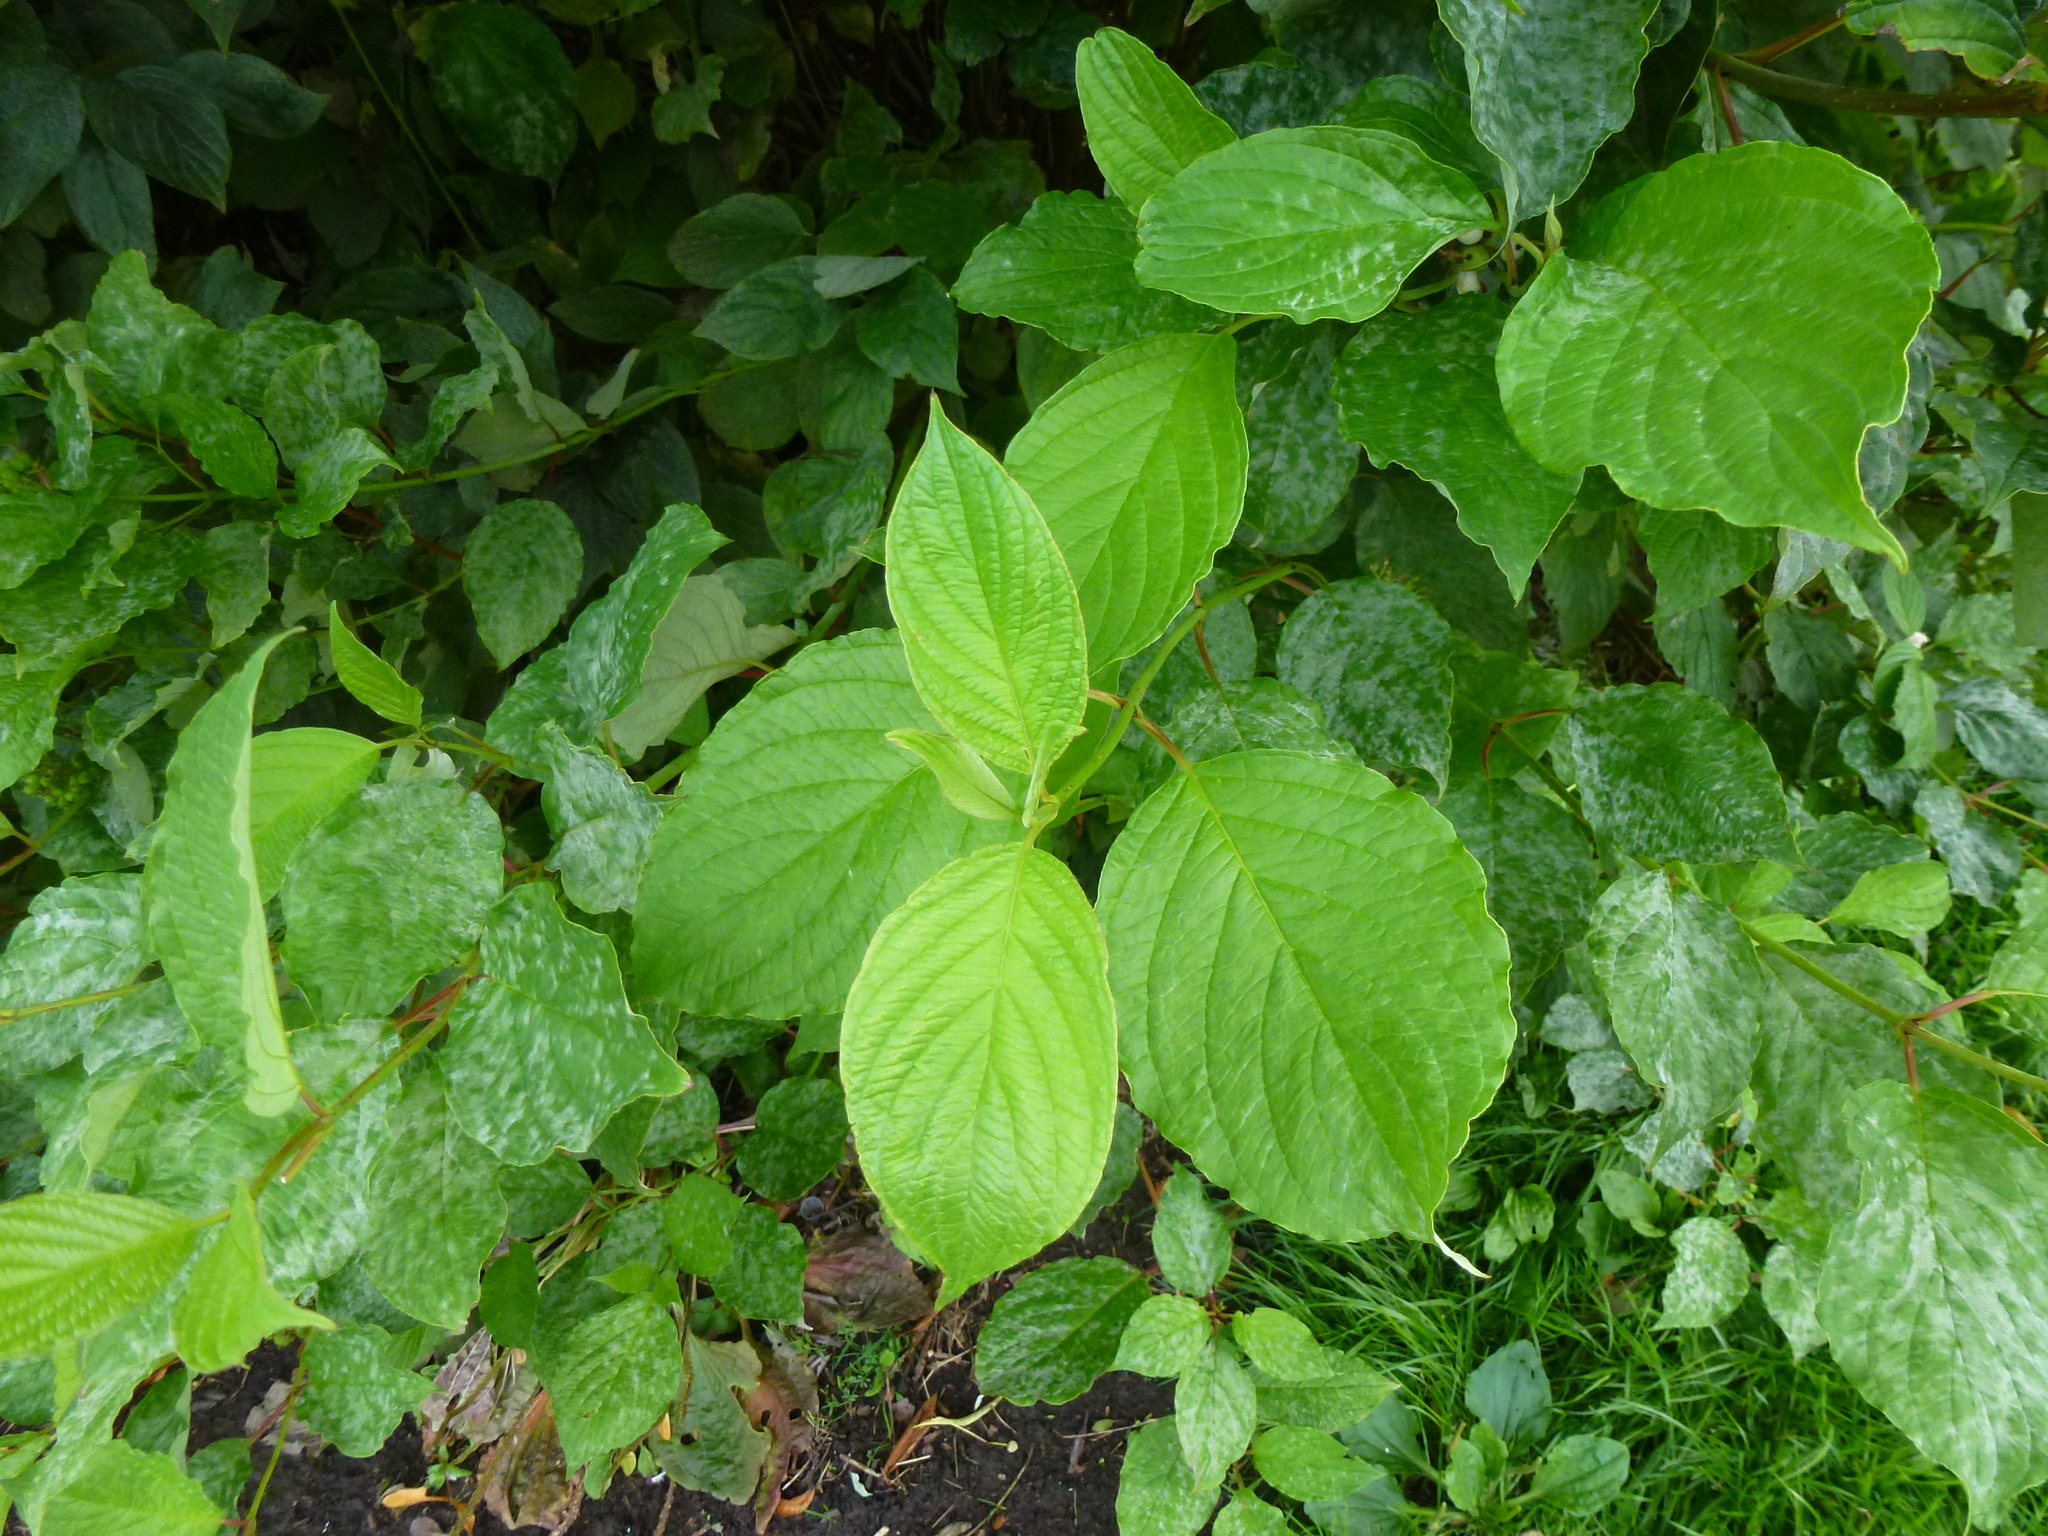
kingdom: Plantae
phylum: Tracheophyta
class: Magnoliopsida
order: Cornales
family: Cornaceae
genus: Cornus
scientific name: Cornus sanguinea
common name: Dogwood
